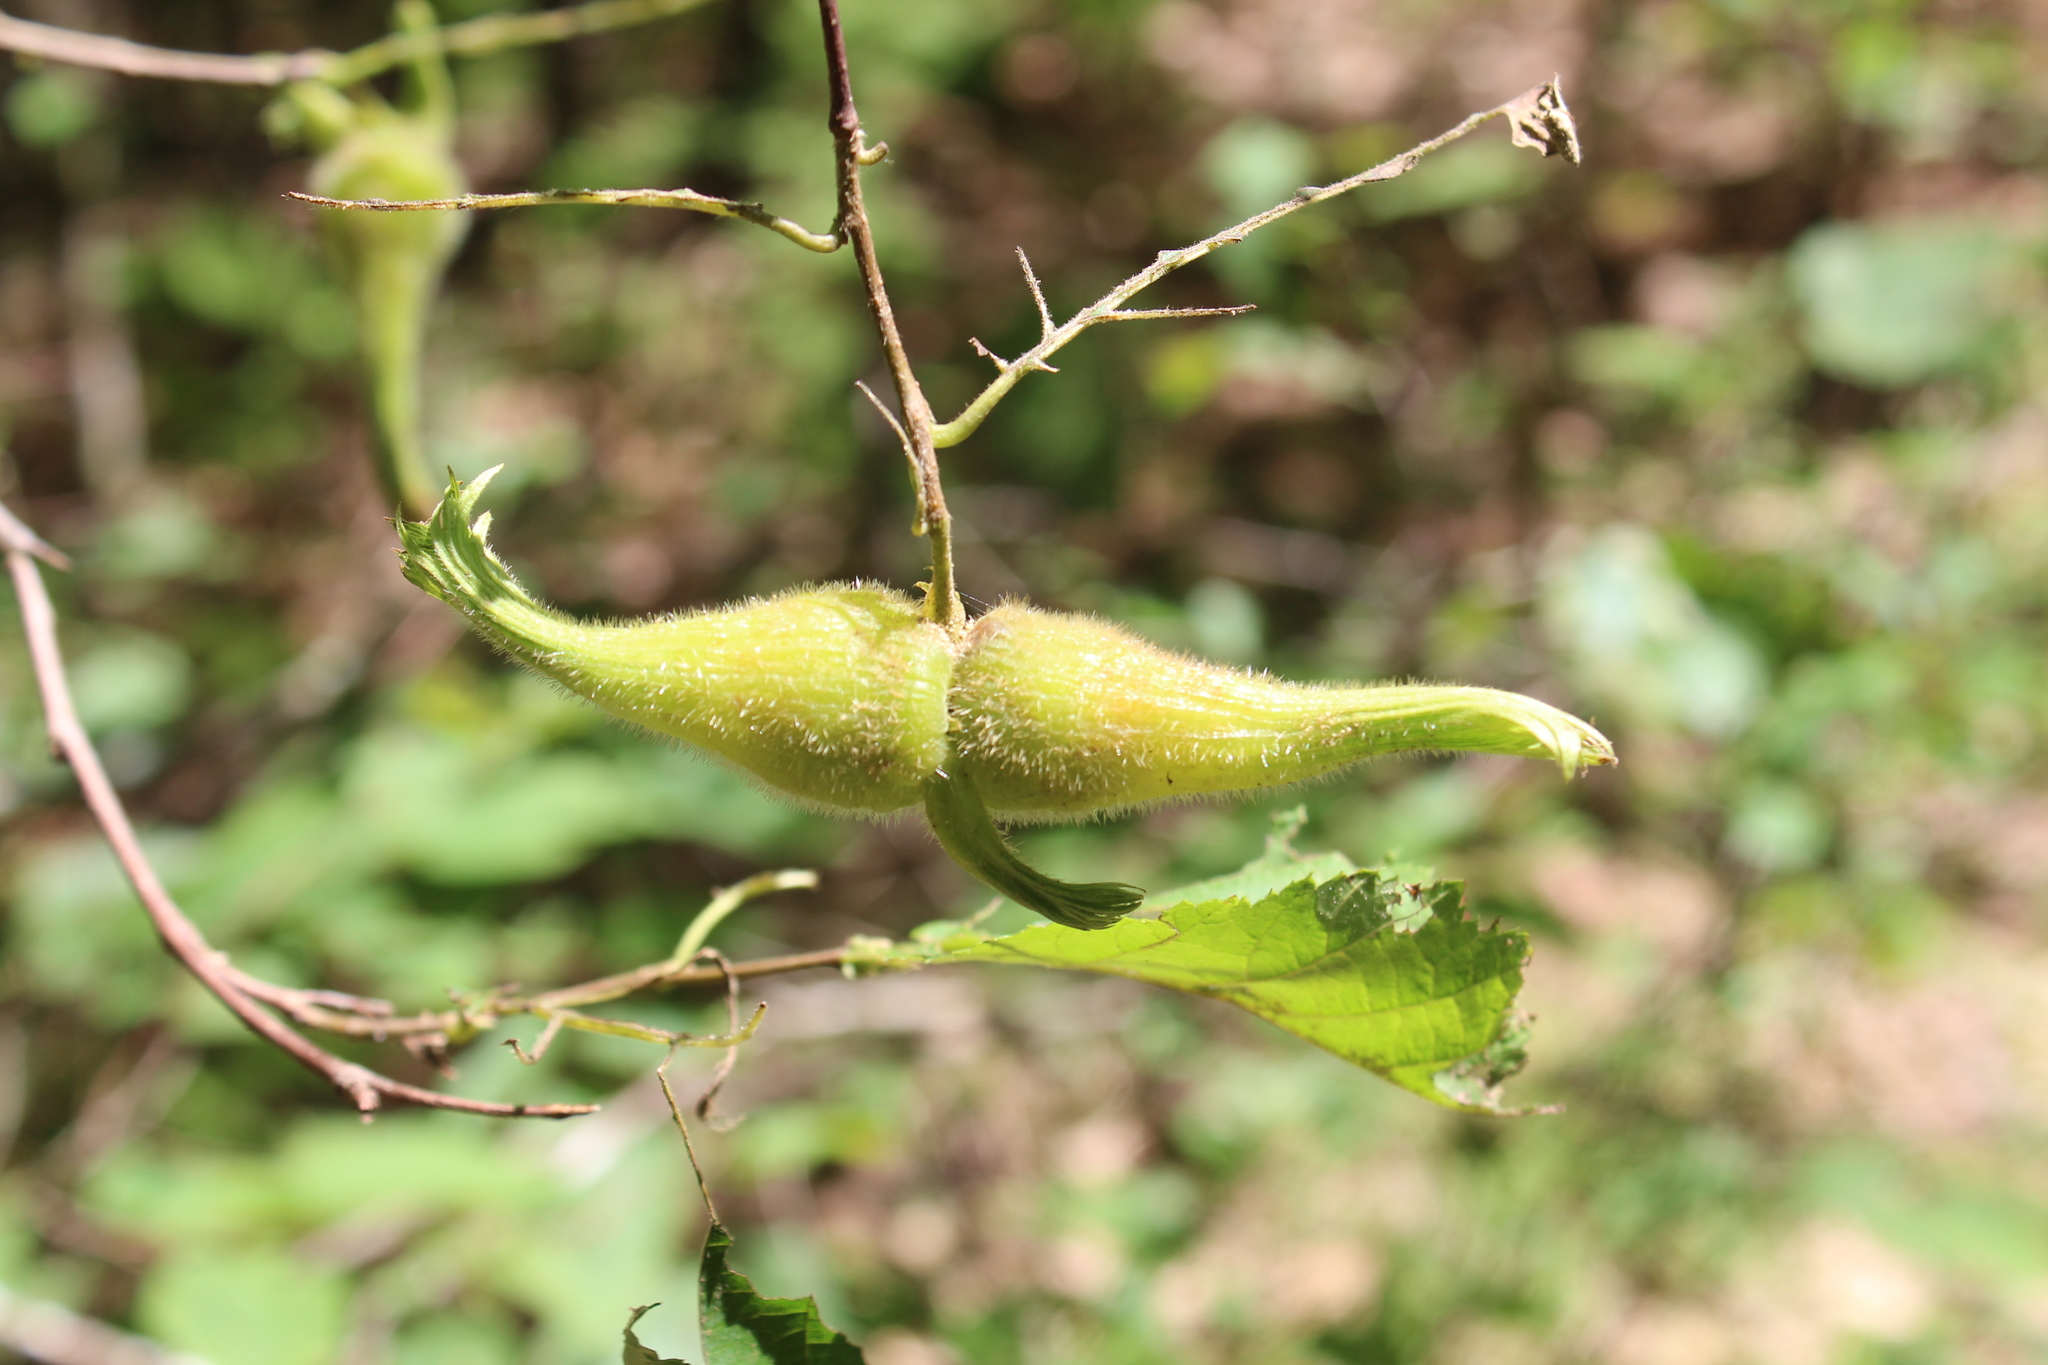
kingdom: Plantae
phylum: Tracheophyta
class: Magnoliopsida
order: Fagales
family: Betulaceae
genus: Corylus
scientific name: Corylus cornuta
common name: Beaked hazel
